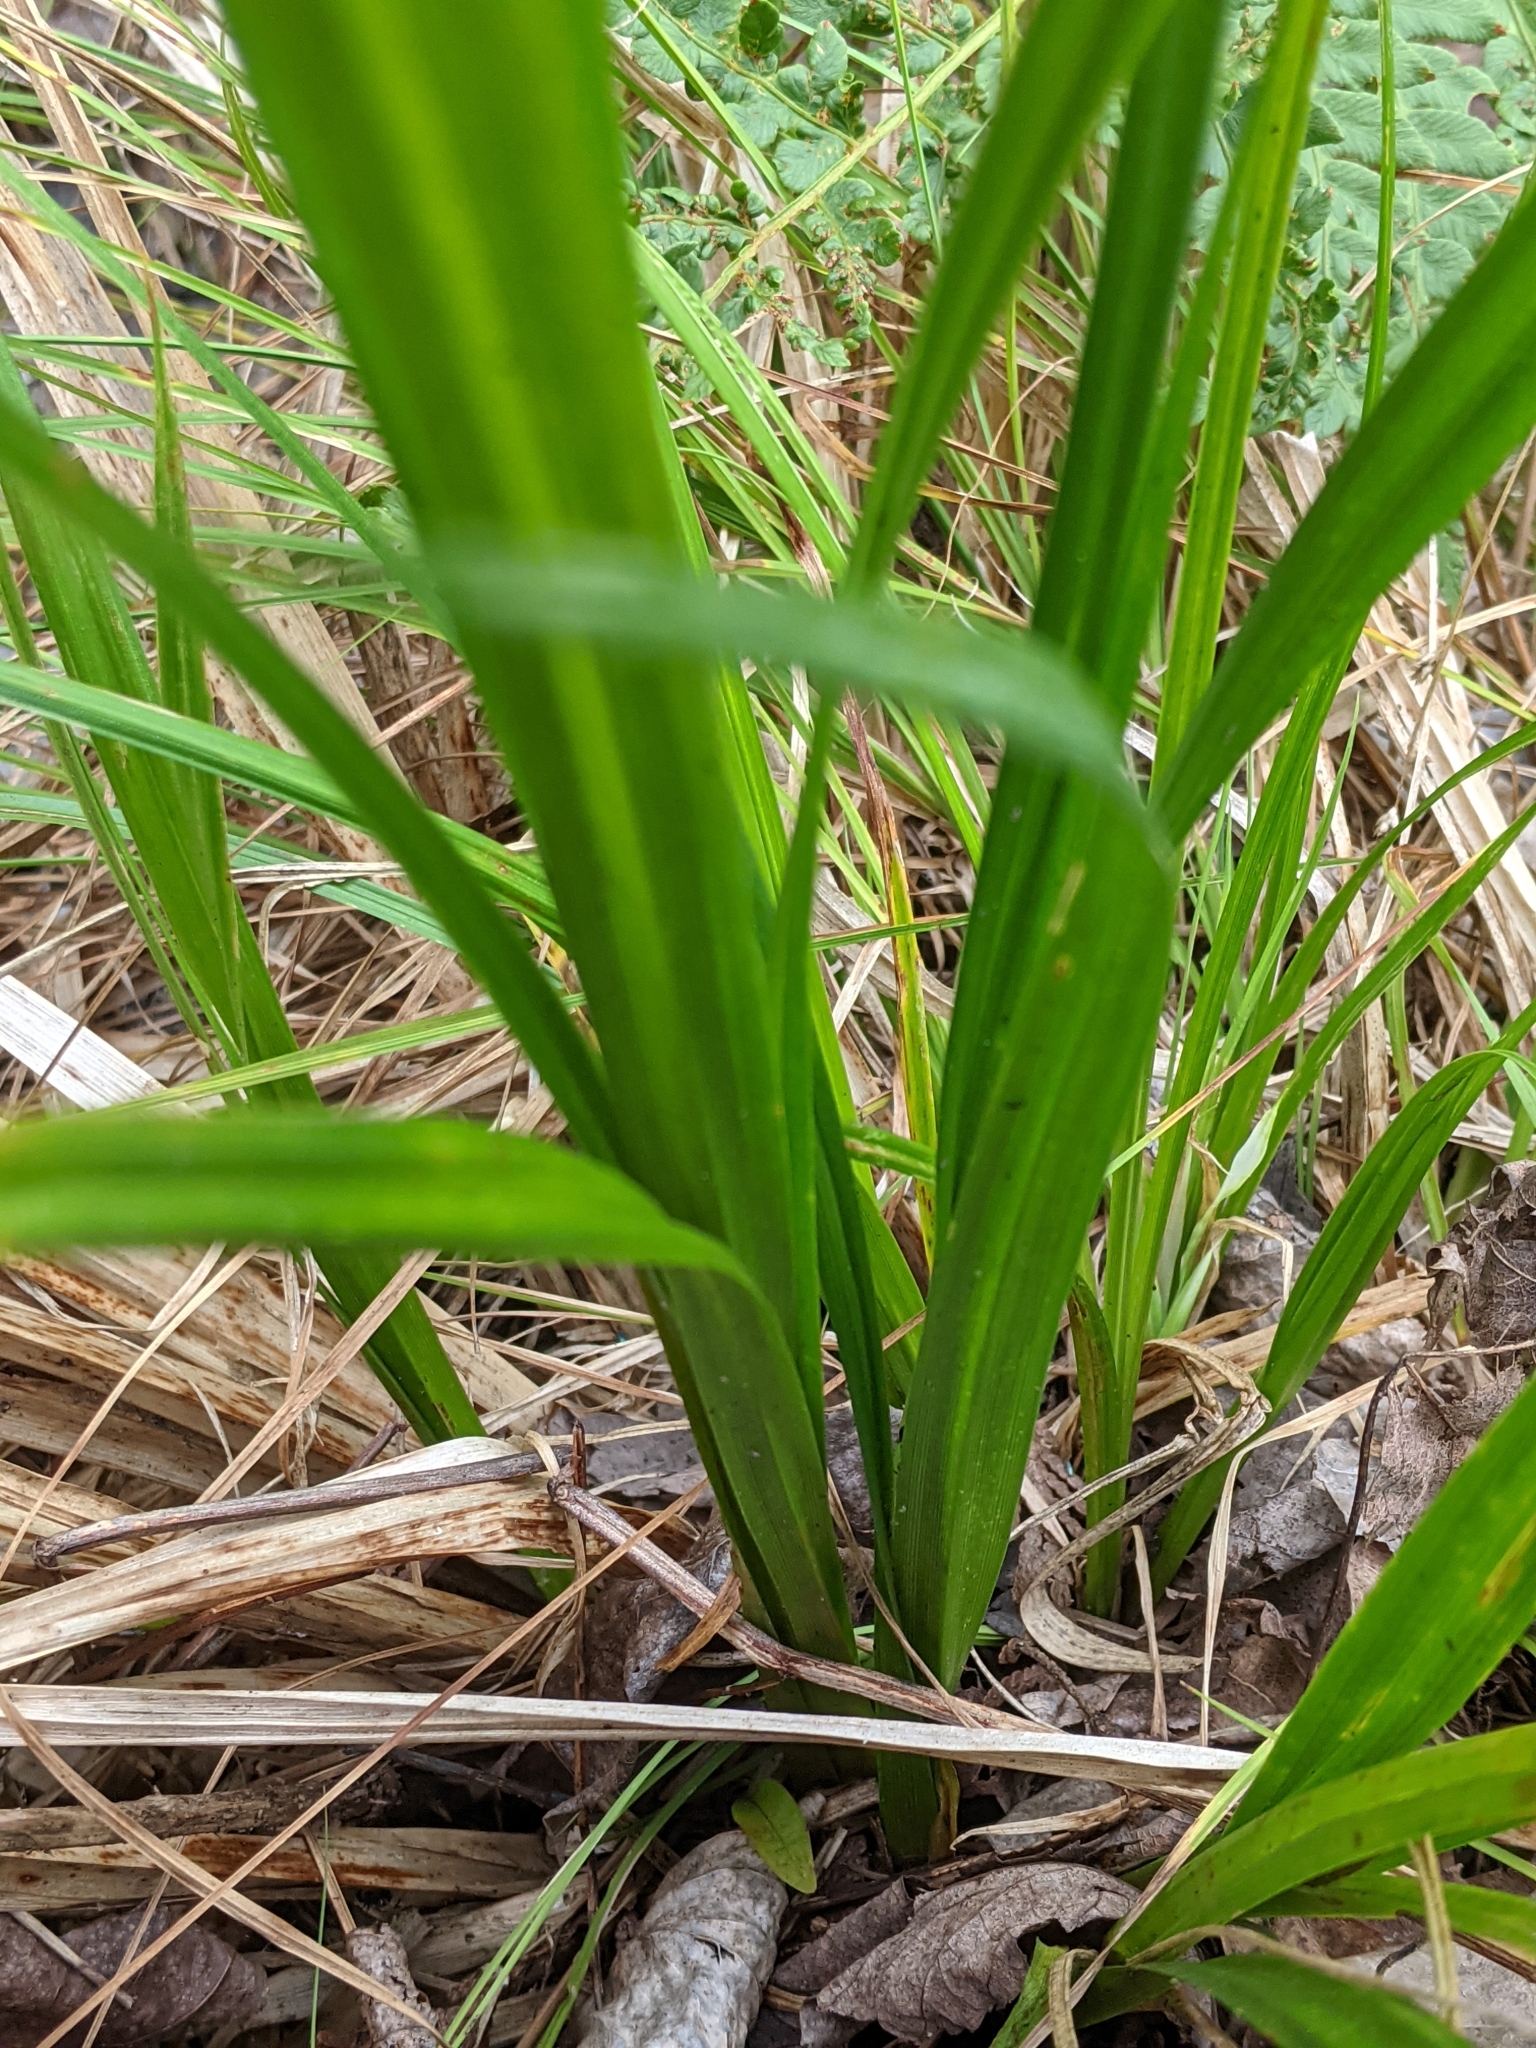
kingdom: Plantae
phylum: Tracheophyta
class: Liliopsida
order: Poales
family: Cyperaceae
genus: Carex
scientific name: Carex comosa
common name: Bristly sedge
